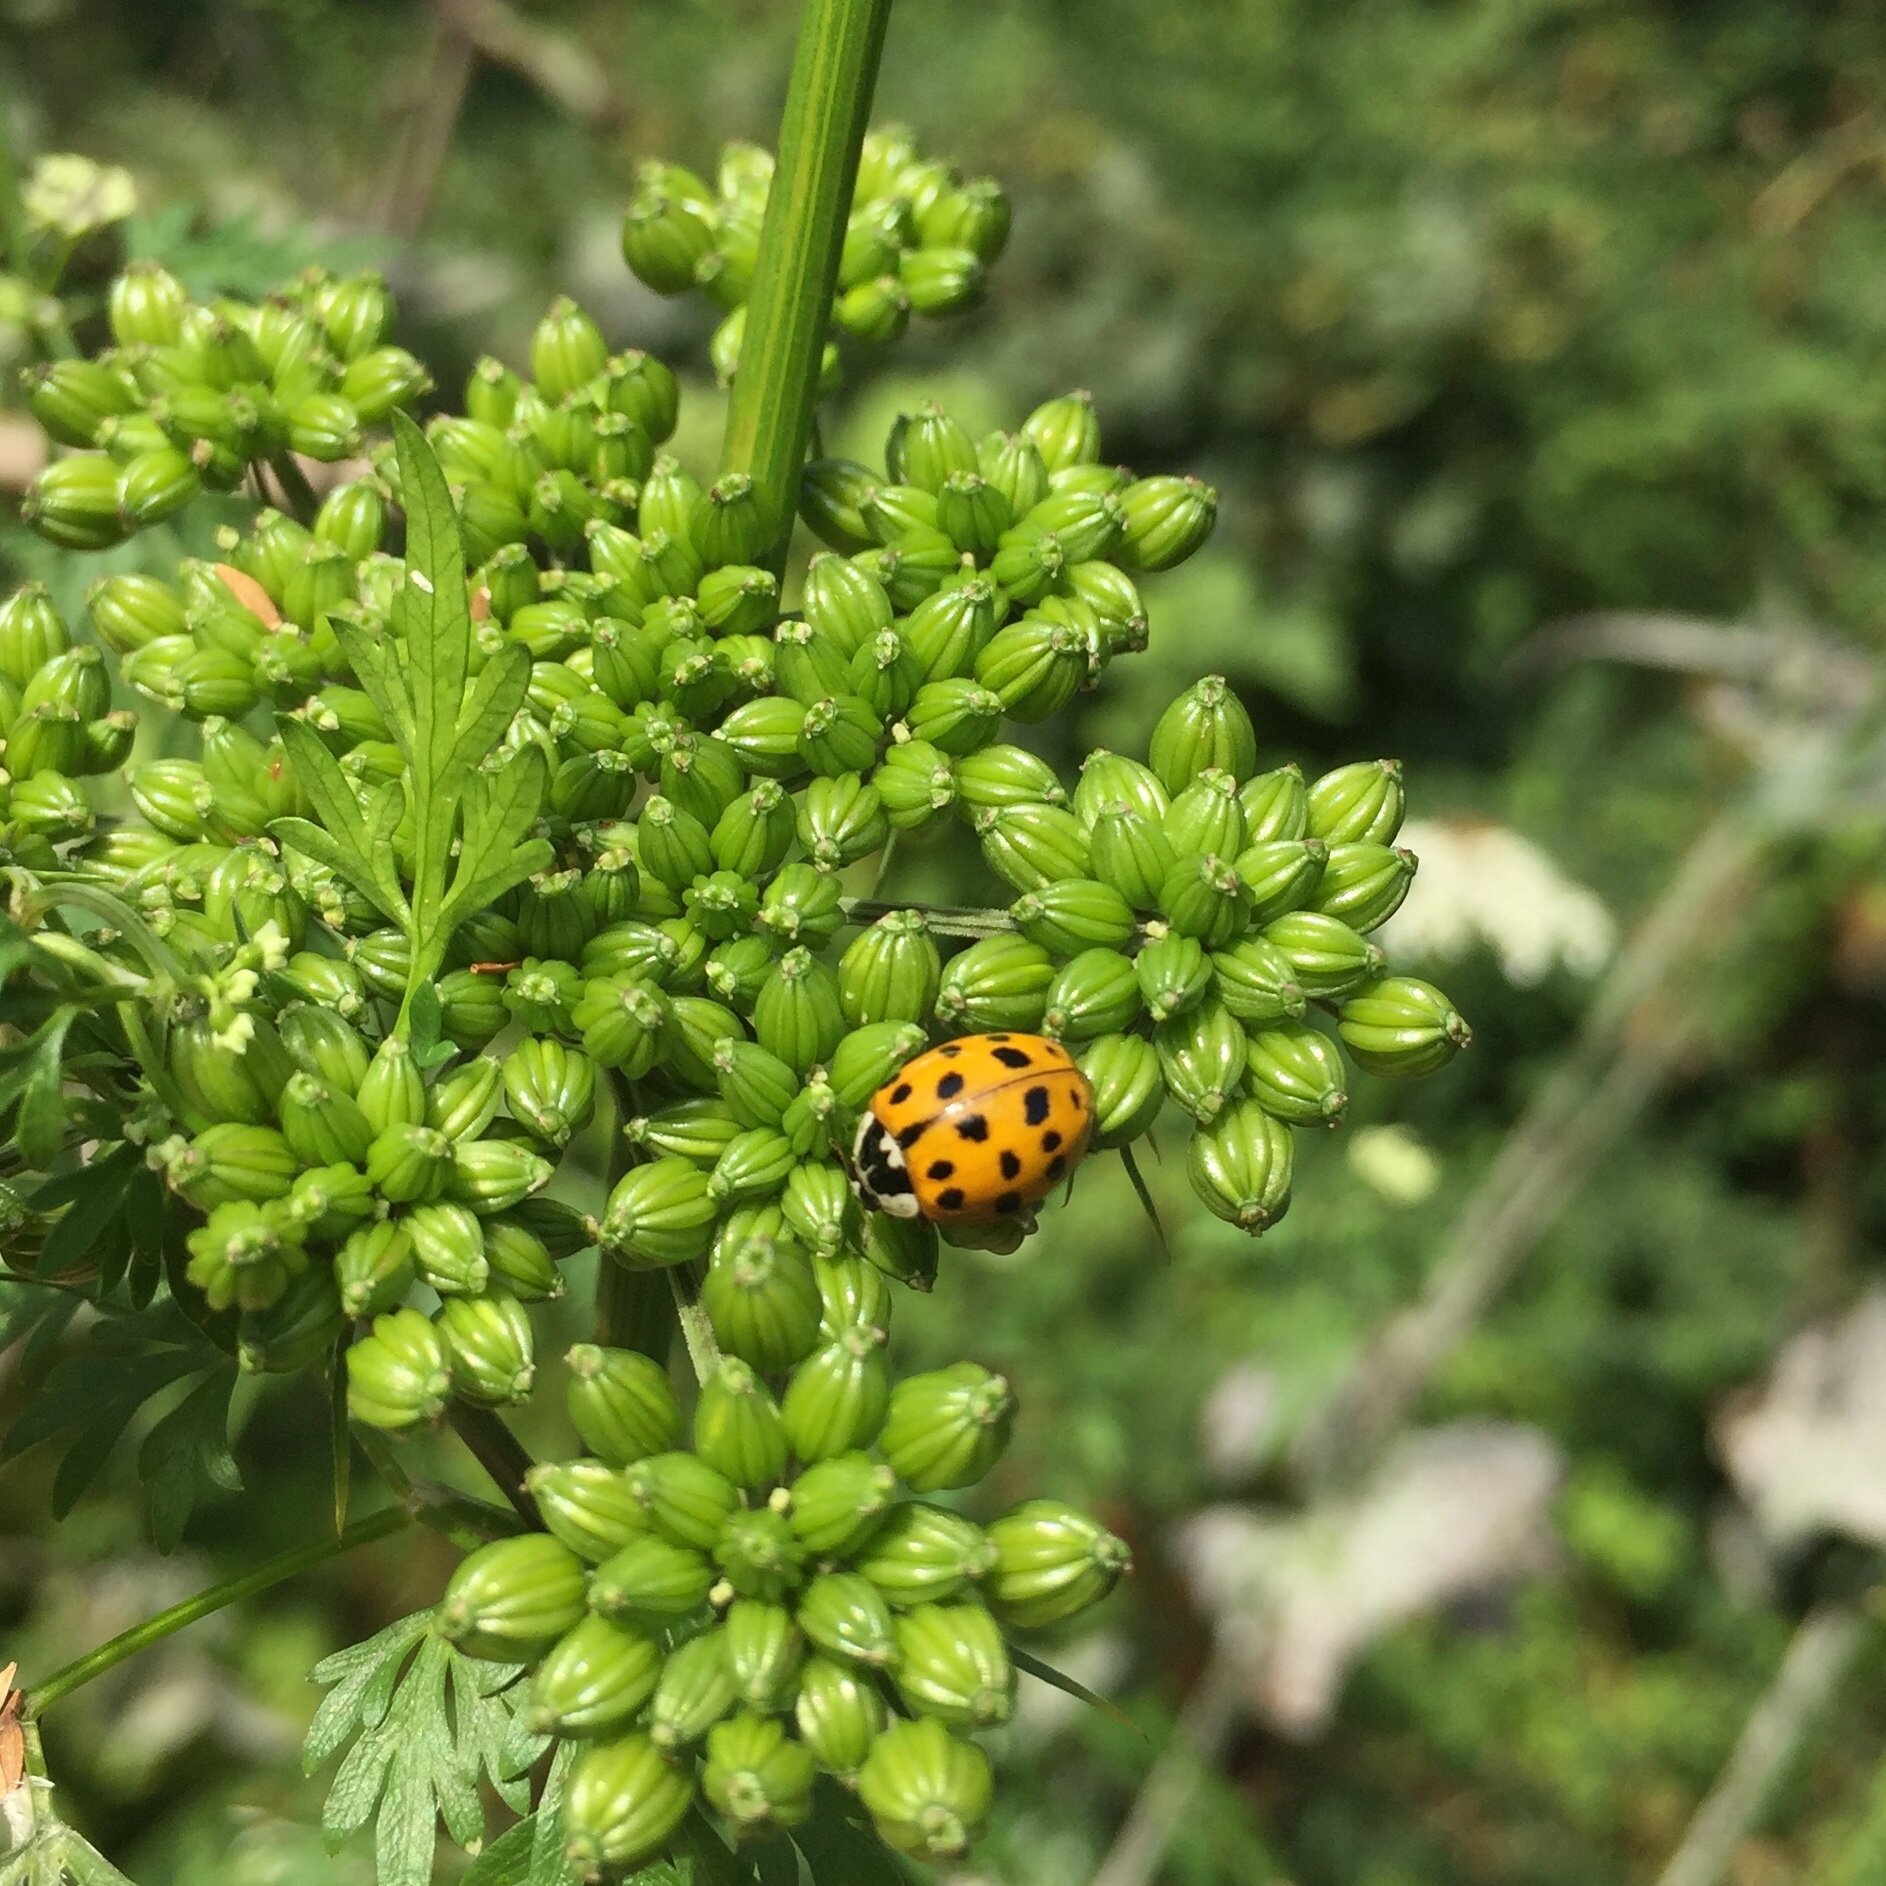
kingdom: Animalia
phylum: Arthropoda
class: Insecta
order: Coleoptera
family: Coccinellidae
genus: Harmonia
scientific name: Harmonia axyridis
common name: Harlequin ladybird
